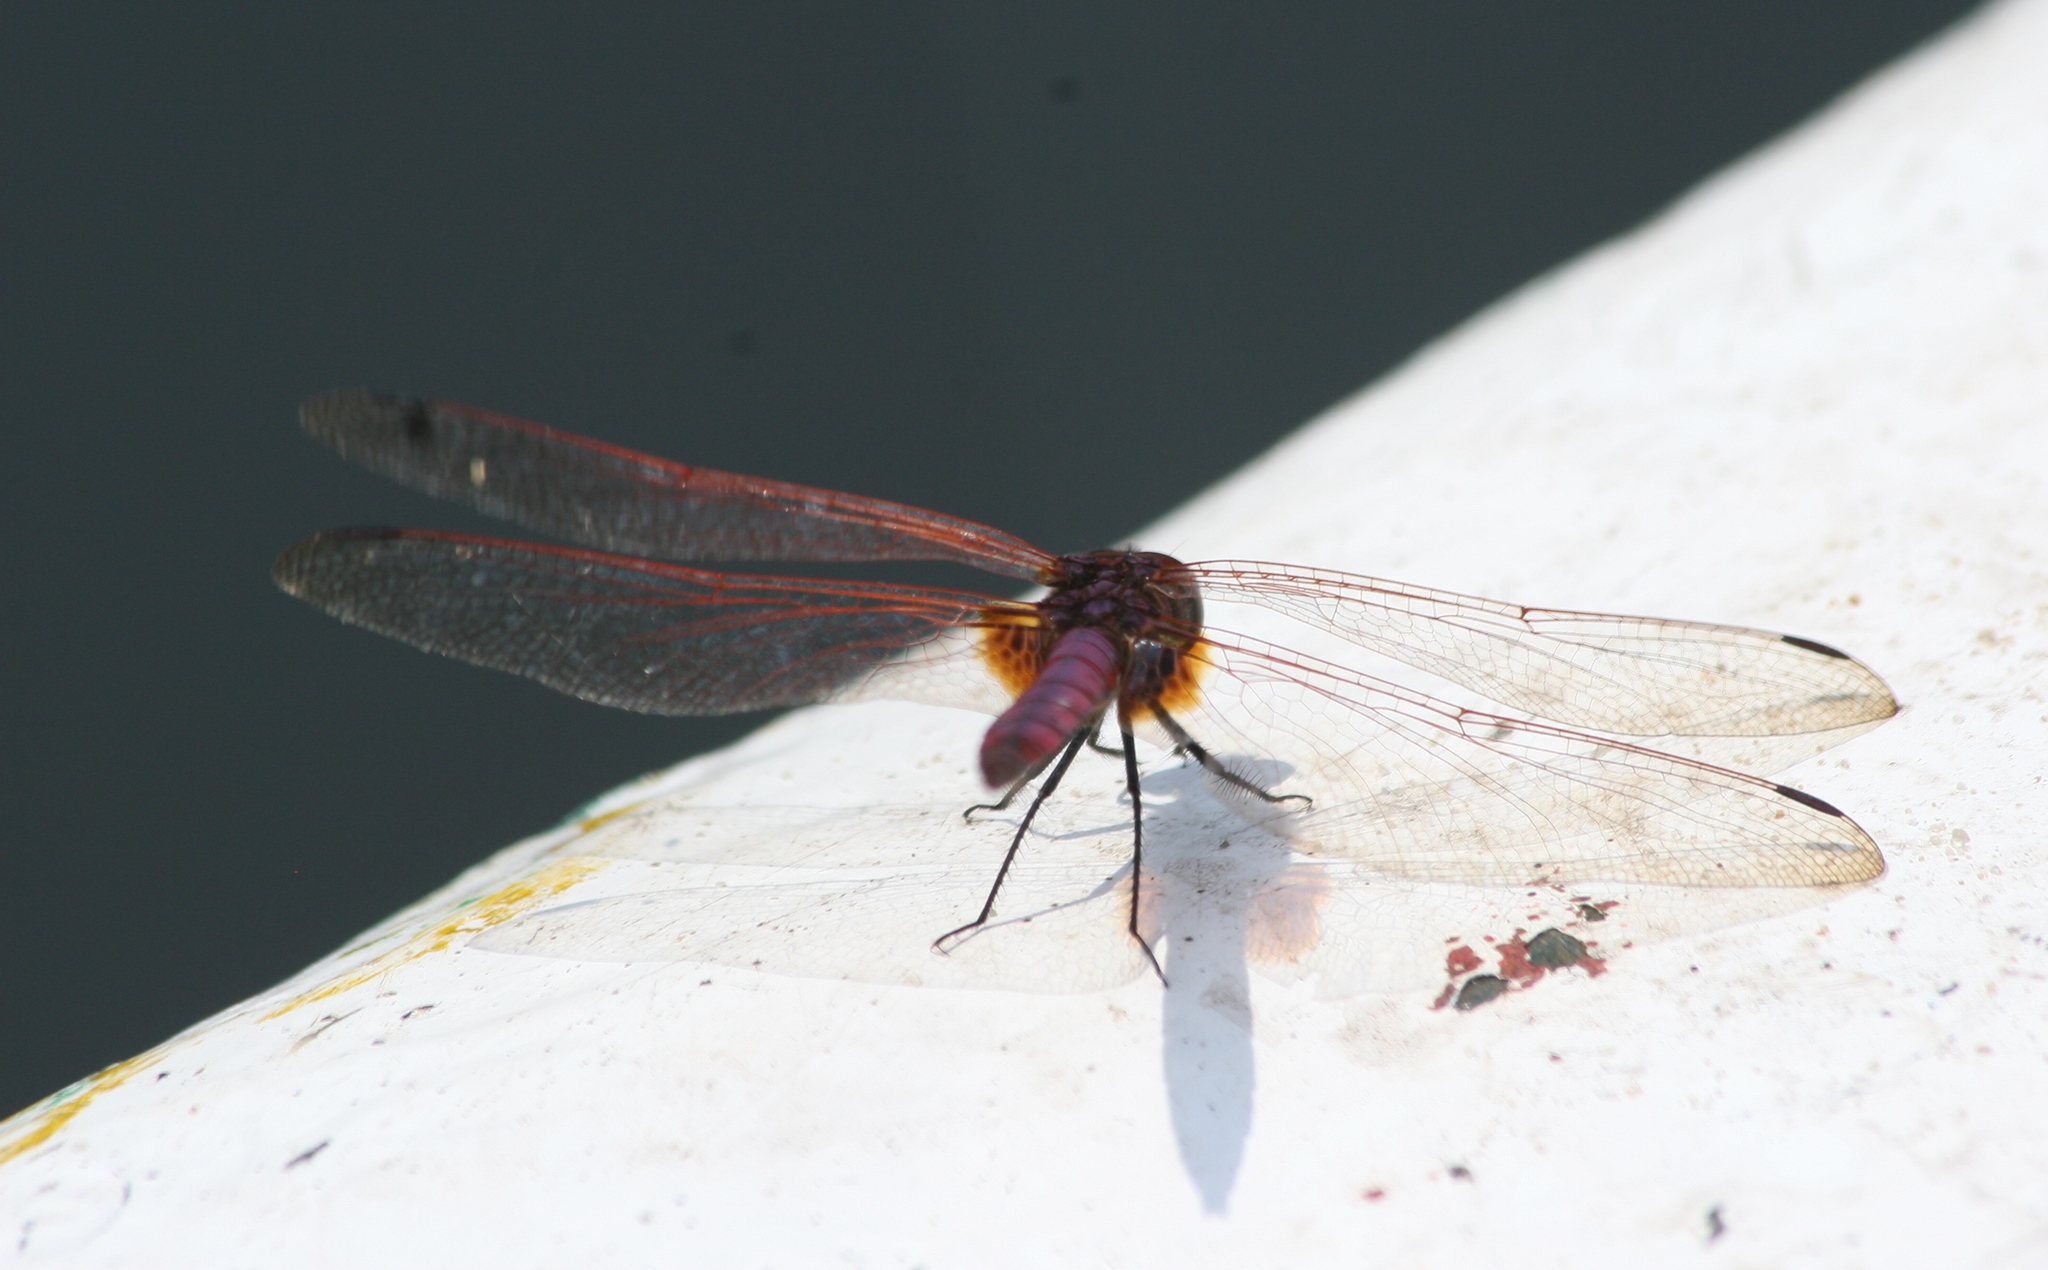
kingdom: Animalia
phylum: Arthropoda
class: Insecta
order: Odonata
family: Libellulidae
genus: Trithemis
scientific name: Trithemis annulata
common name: Violet dropwing
